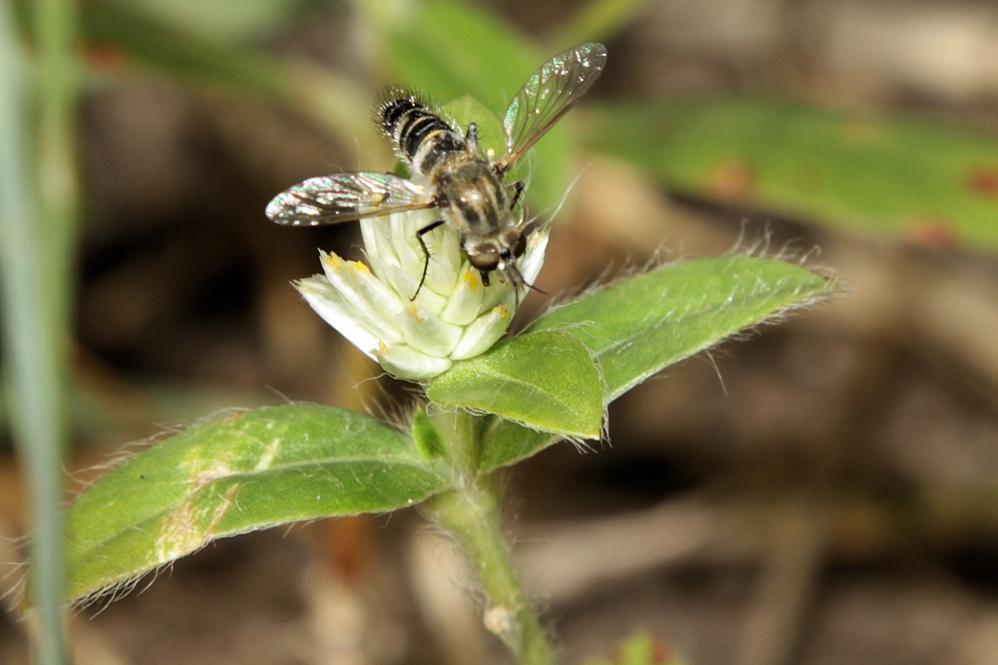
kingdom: Animalia
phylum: Arthropoda
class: Insecta
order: Diptera
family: Bombyliidae
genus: Paratoxophora
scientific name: Paratoxophora cuthbertsoni
